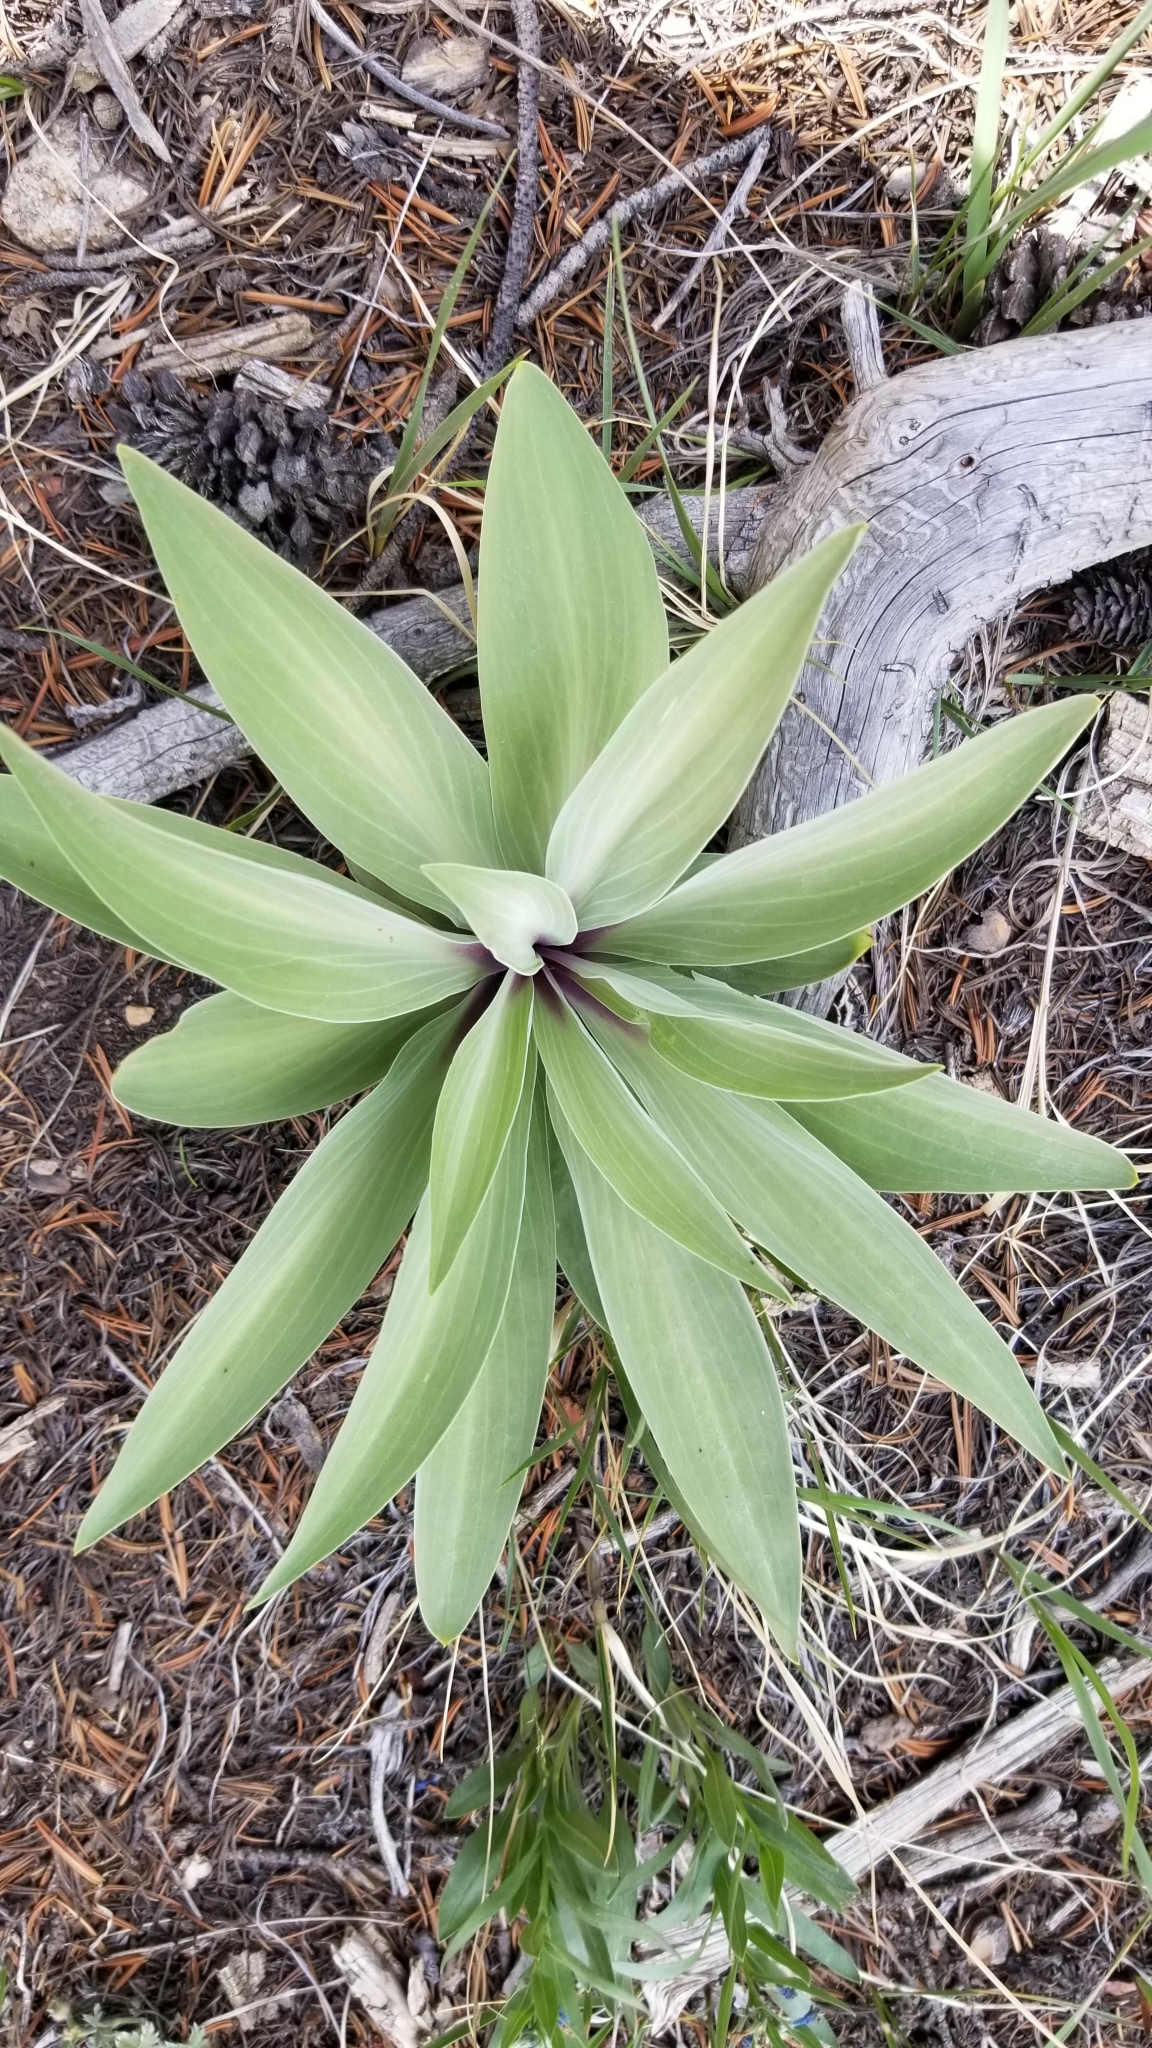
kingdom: Plantae
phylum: Tracheophyta
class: Magnoliopsida
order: Gentianales
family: Gentianaceae
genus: Frasera
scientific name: Frasera speciosa
